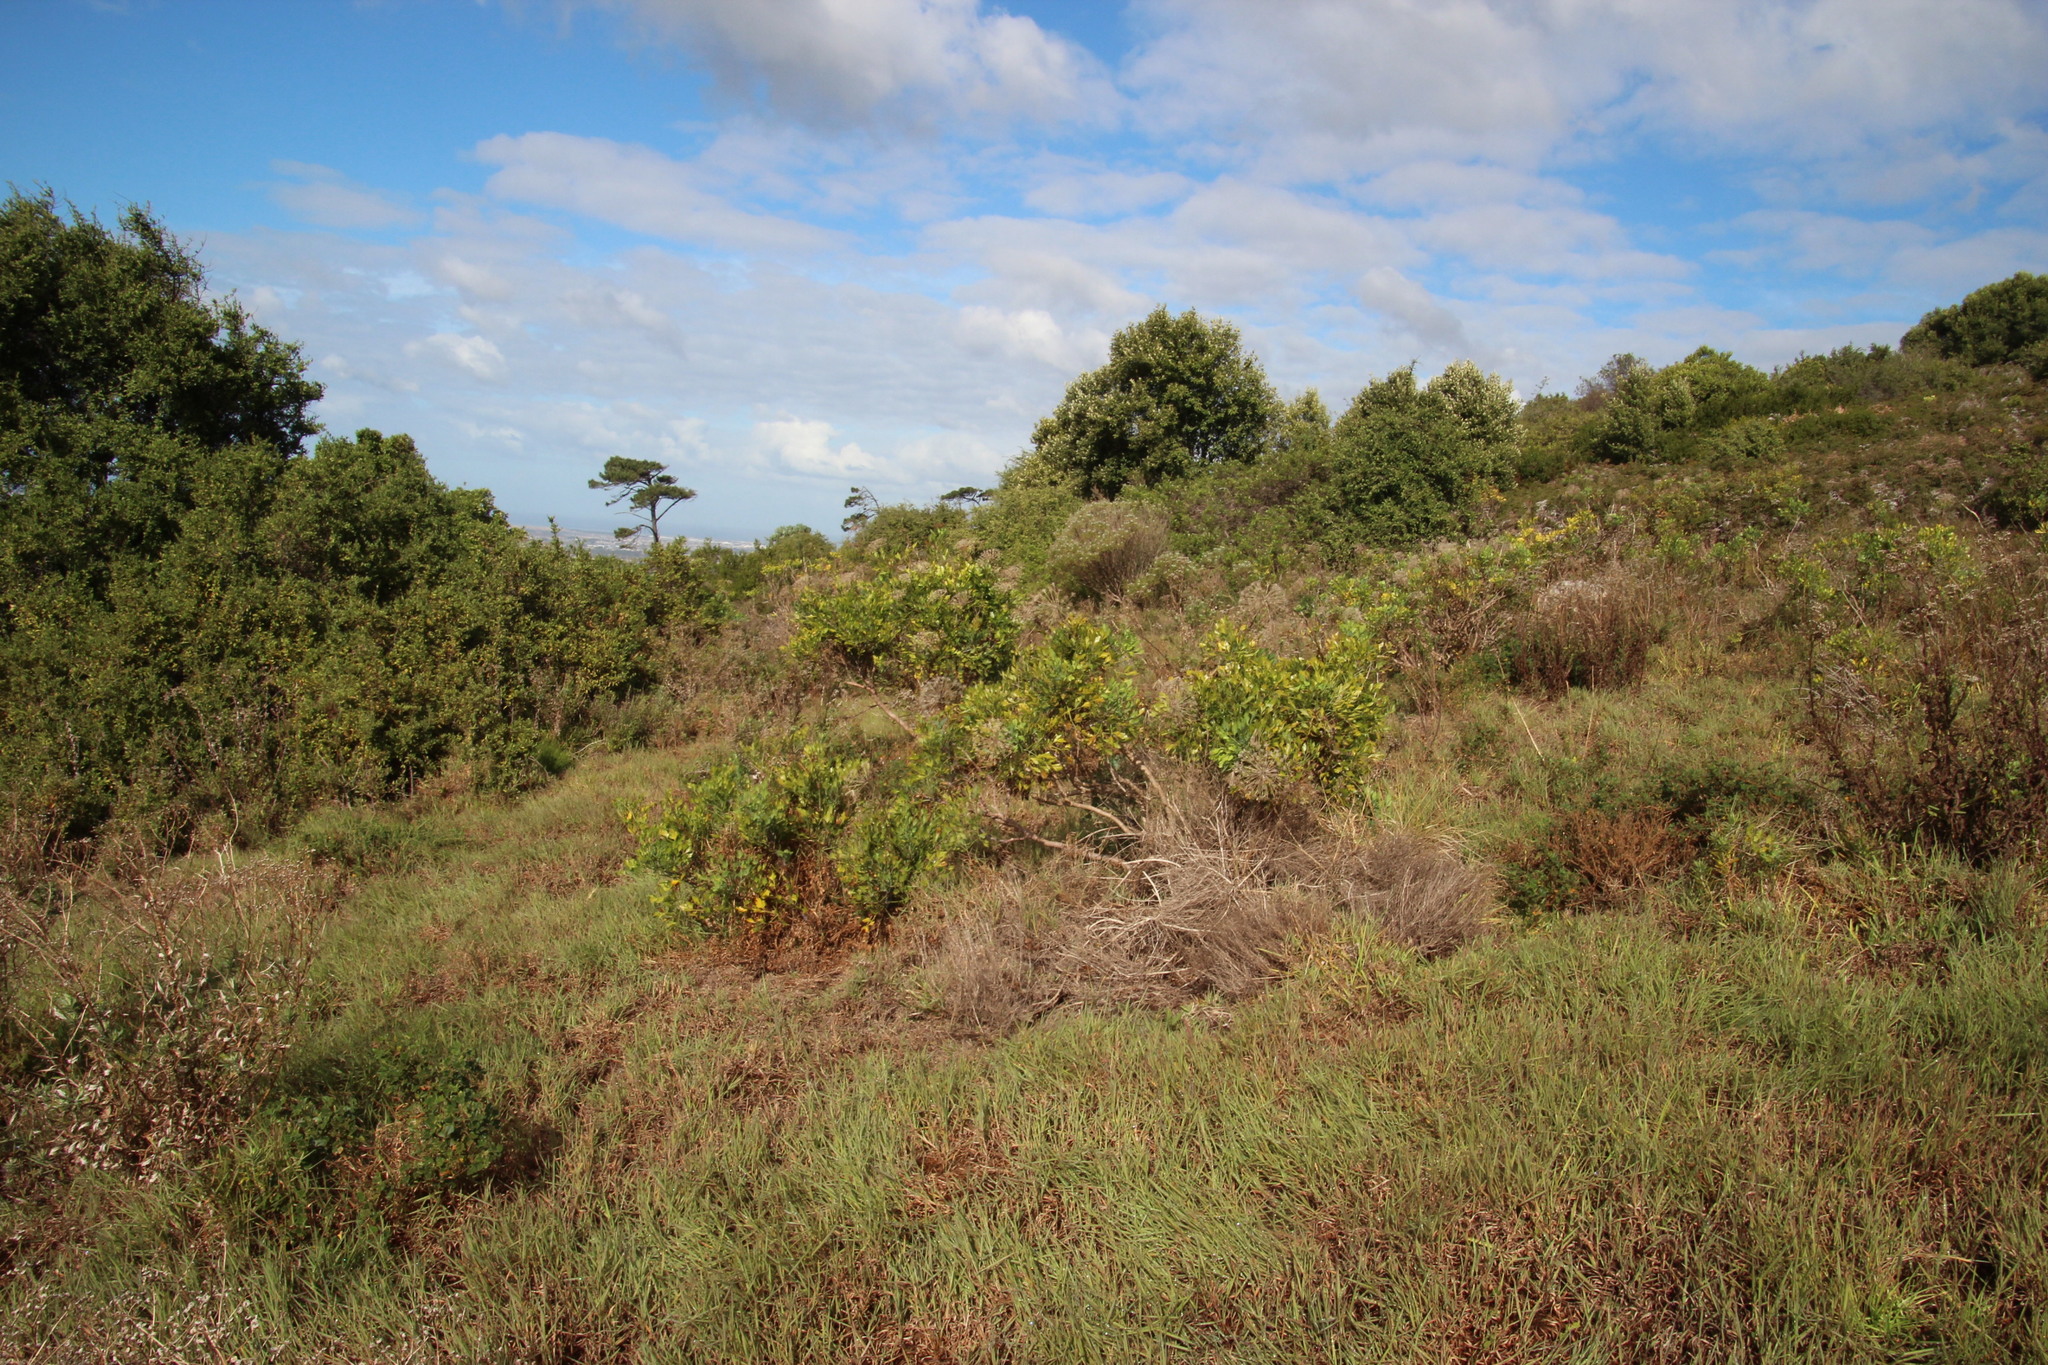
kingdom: Plantae
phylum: Tracheophyta
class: Magnoliopsida
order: Apiales
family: Apiaceae
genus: Notobubon
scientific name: Notobubon galbanum
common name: Blisterbush
